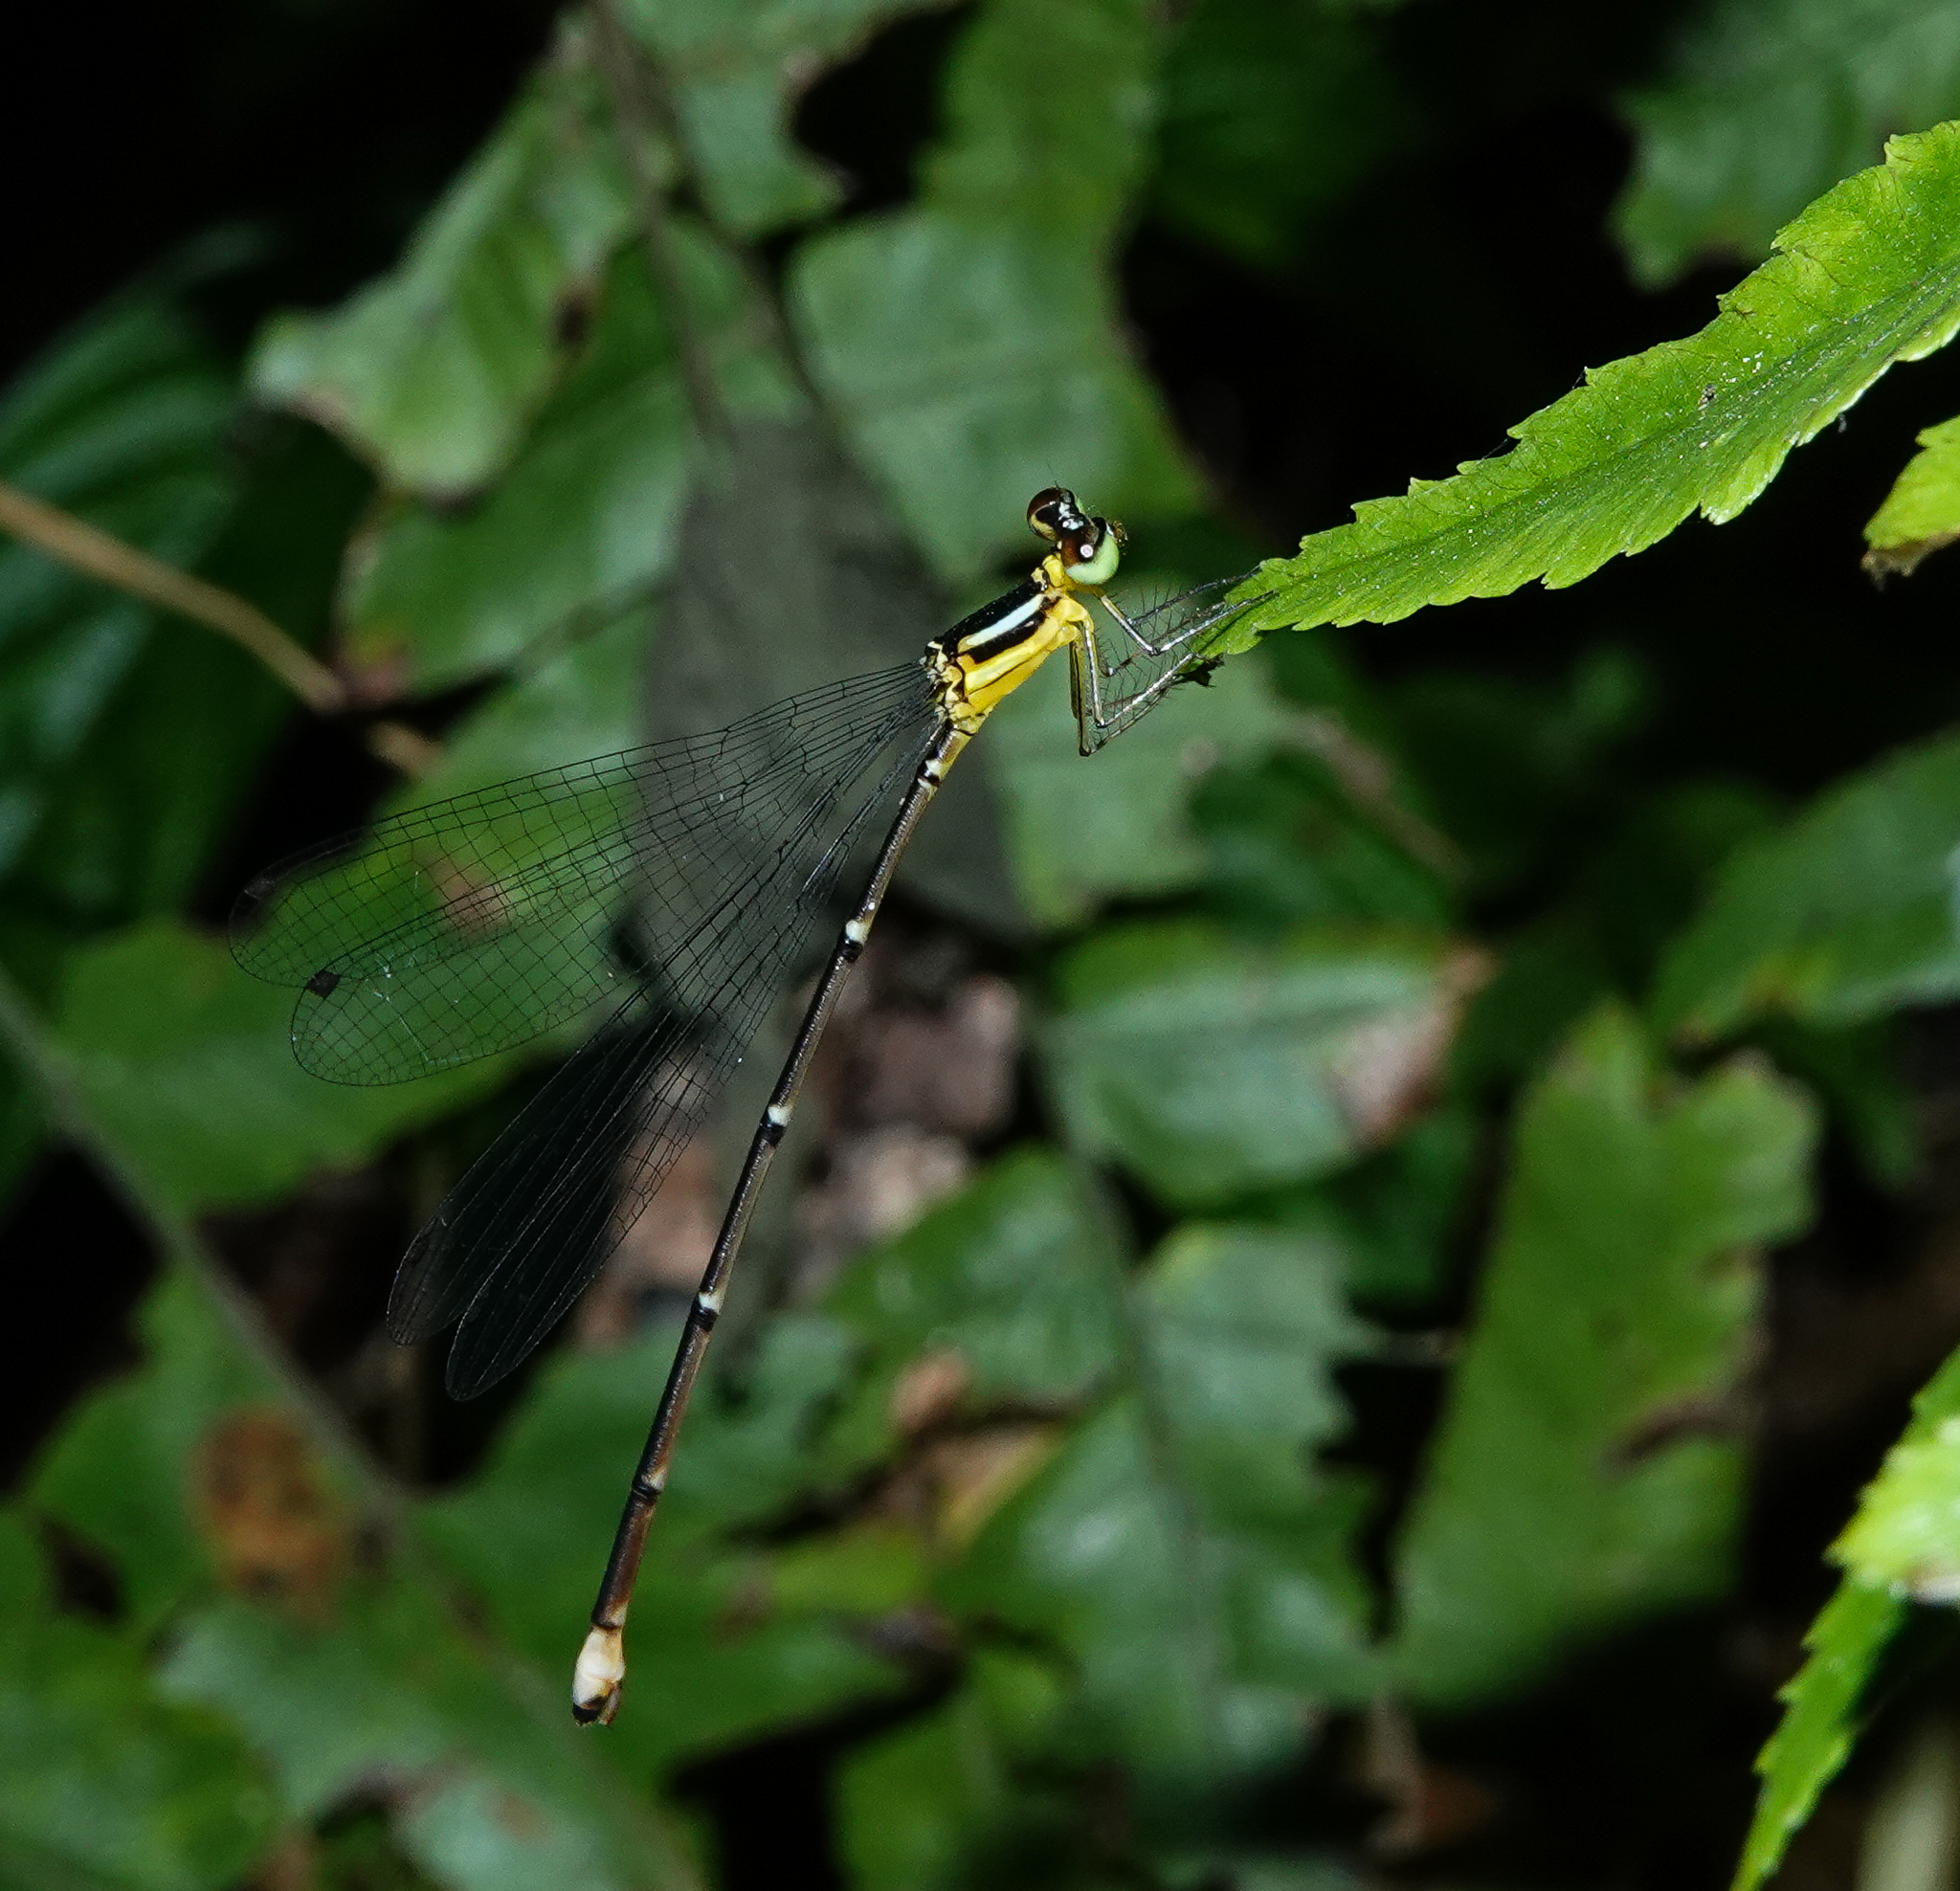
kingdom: Animalia
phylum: Arthropoda
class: Insecta
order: Odonata
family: Platycnemididae
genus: Coeliccia
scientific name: Coeliccia bimaculata
